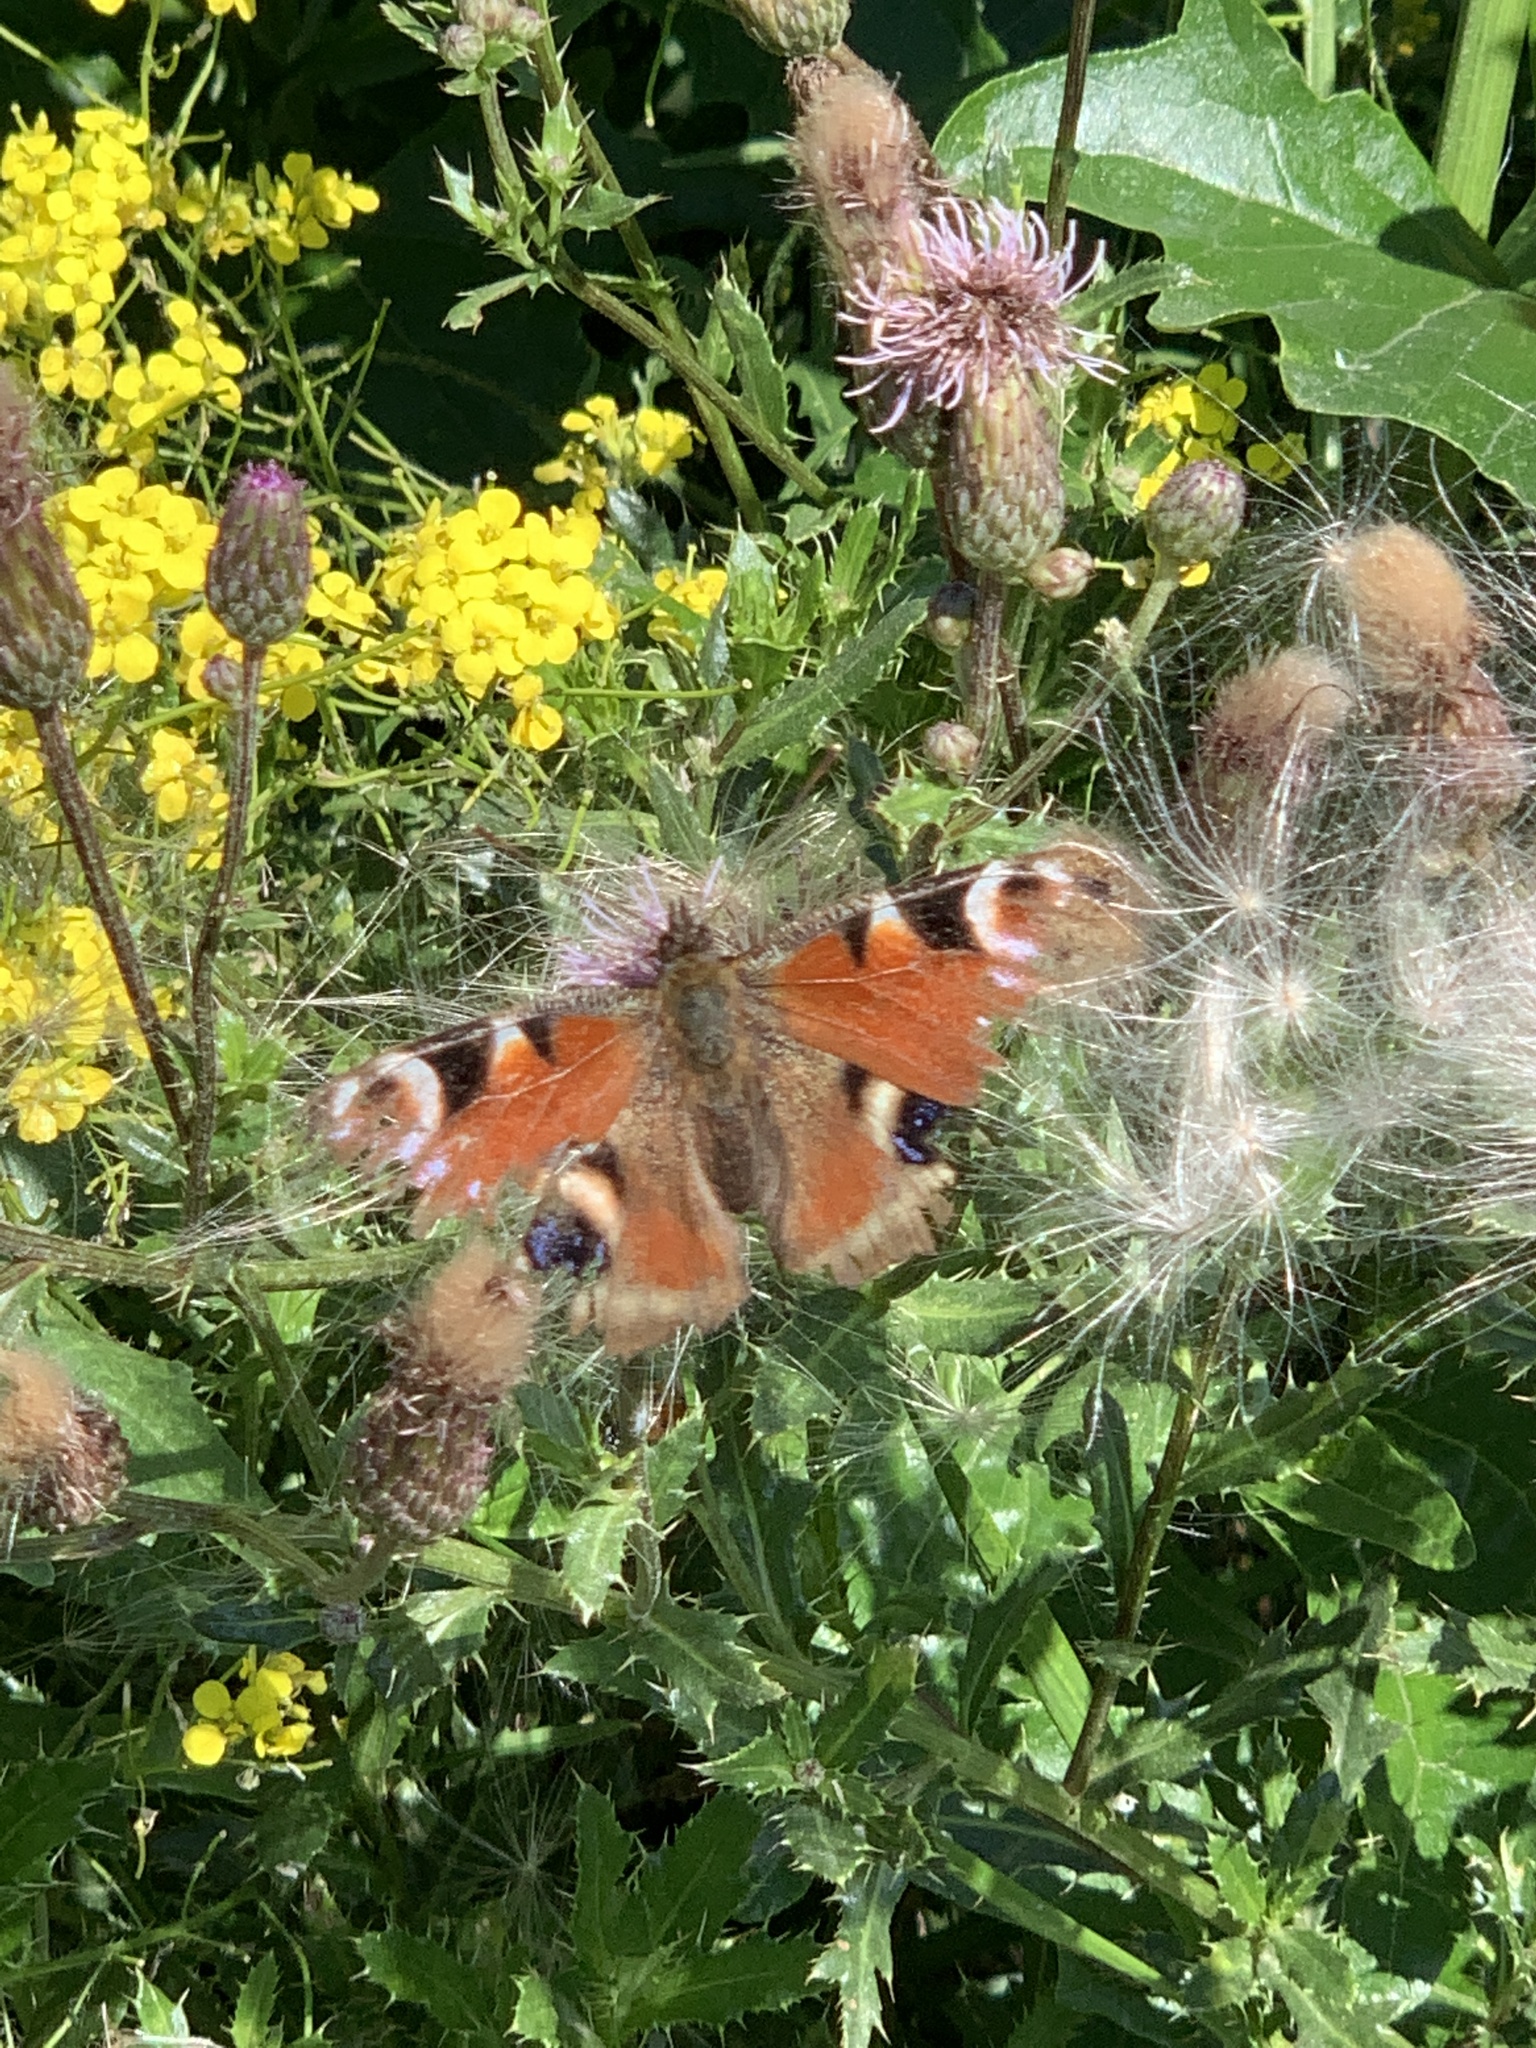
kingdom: Animalia
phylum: Arthropoda
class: Insecta
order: Lepidoptera
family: Nymphalidae
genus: Aglais
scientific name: Aglais io
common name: Peacock
